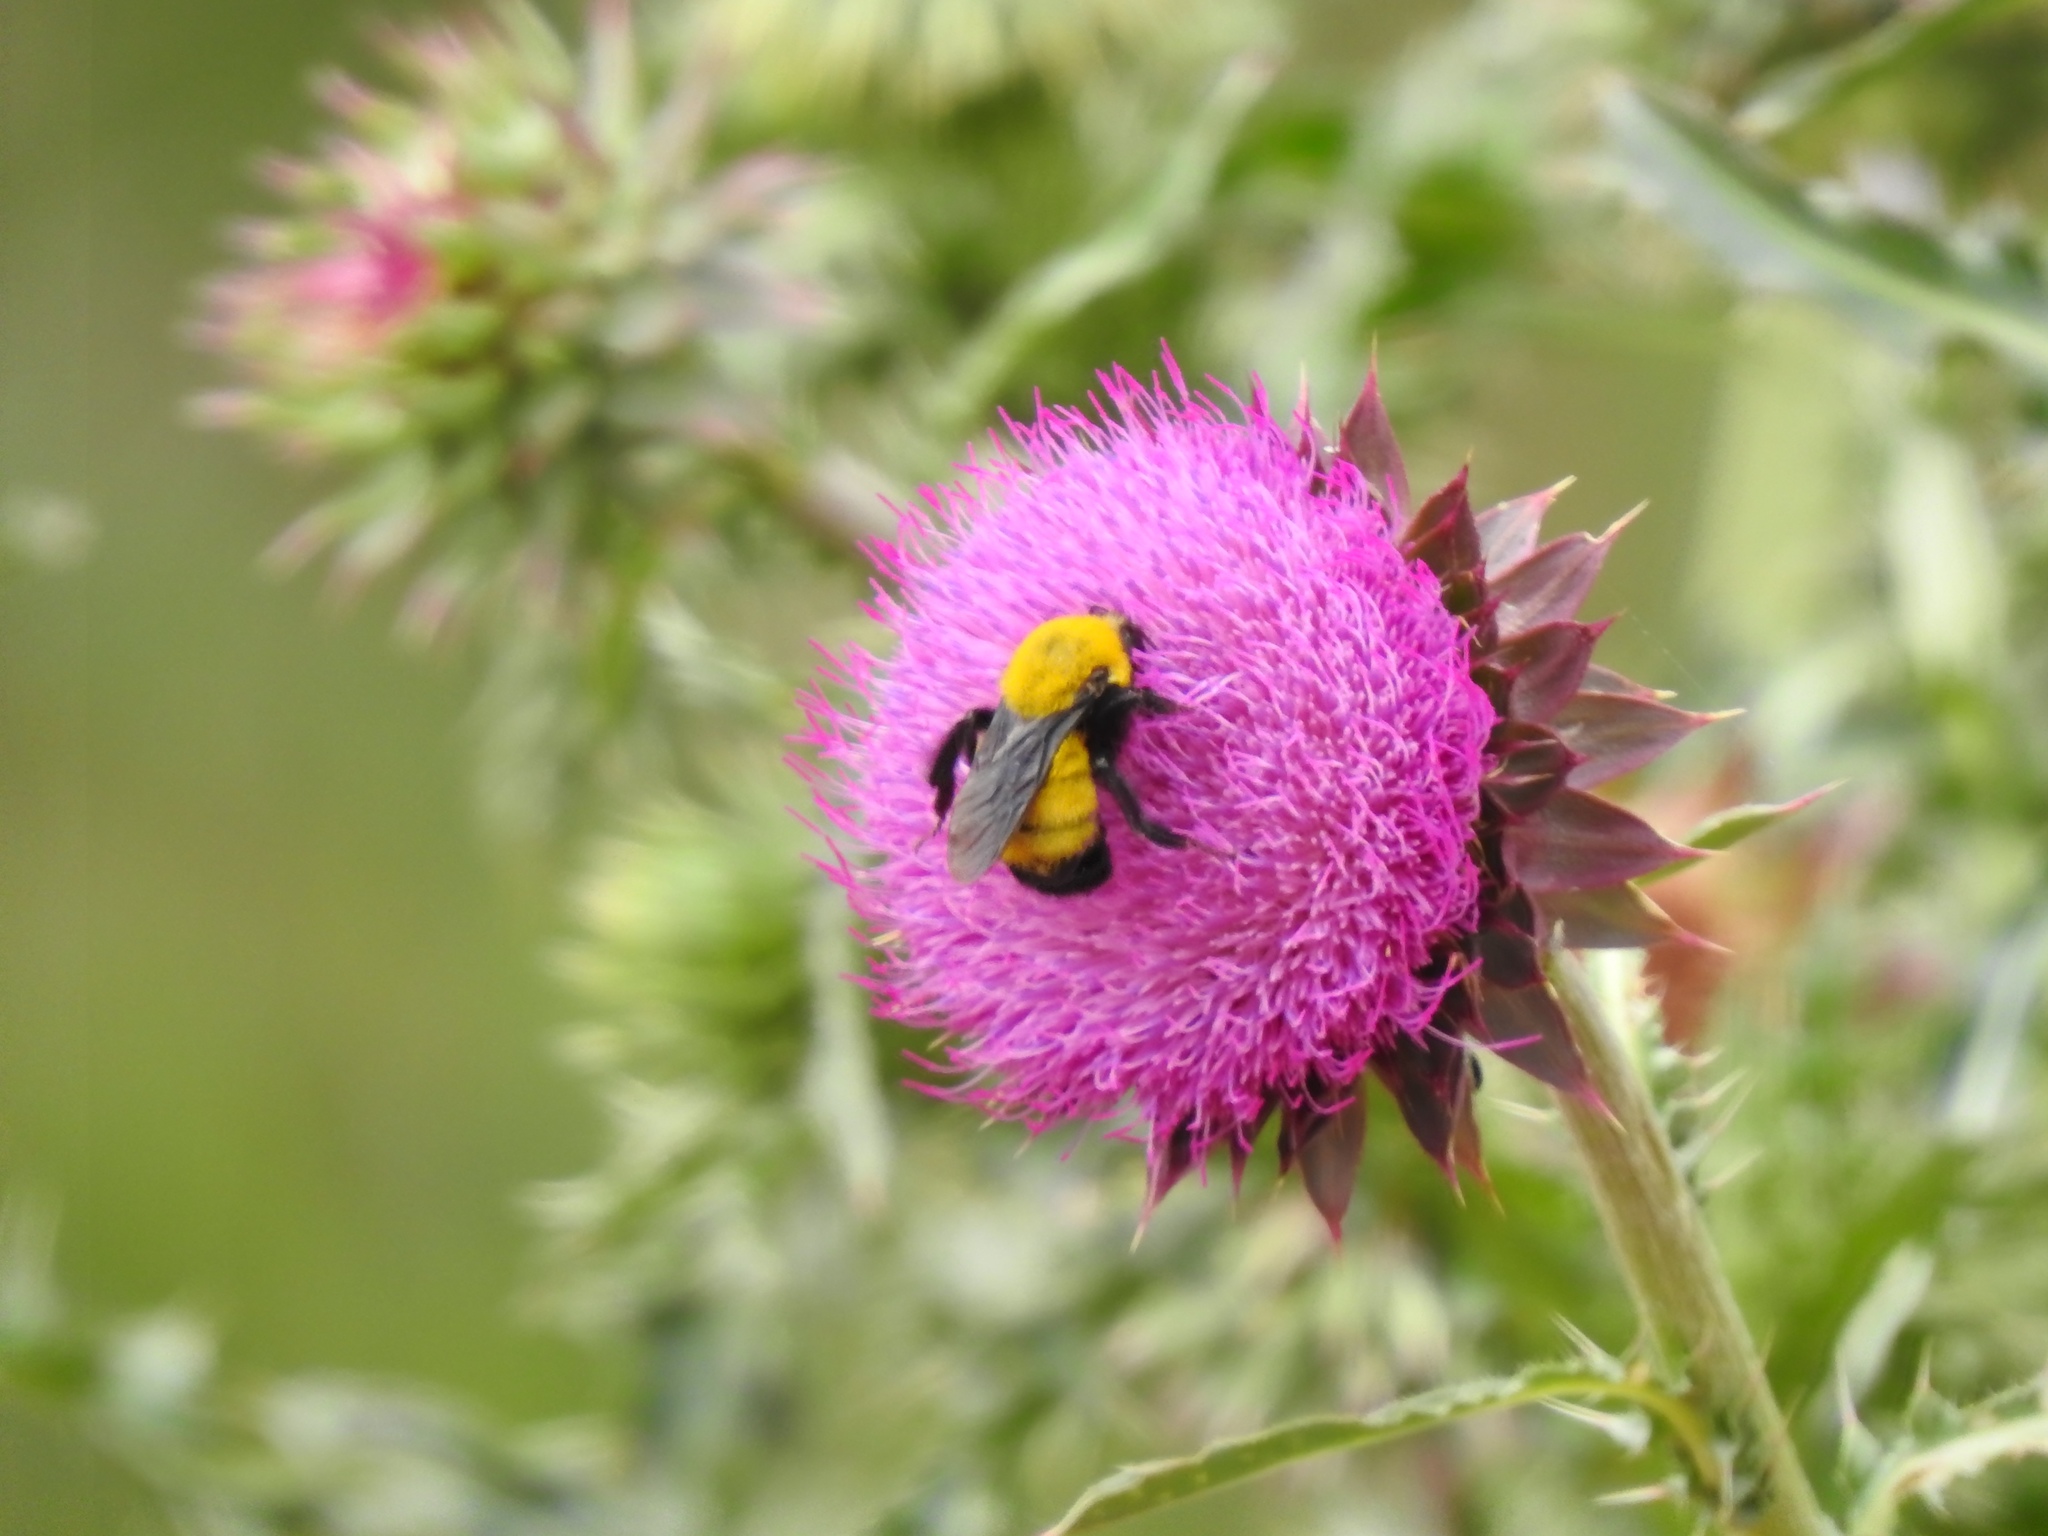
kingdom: Animalia
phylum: Arthropoda
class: Insecta
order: Hymenoptera
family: Apidae
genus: Bombus
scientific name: Bombus morrisoni
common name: Morrison bumble bee
